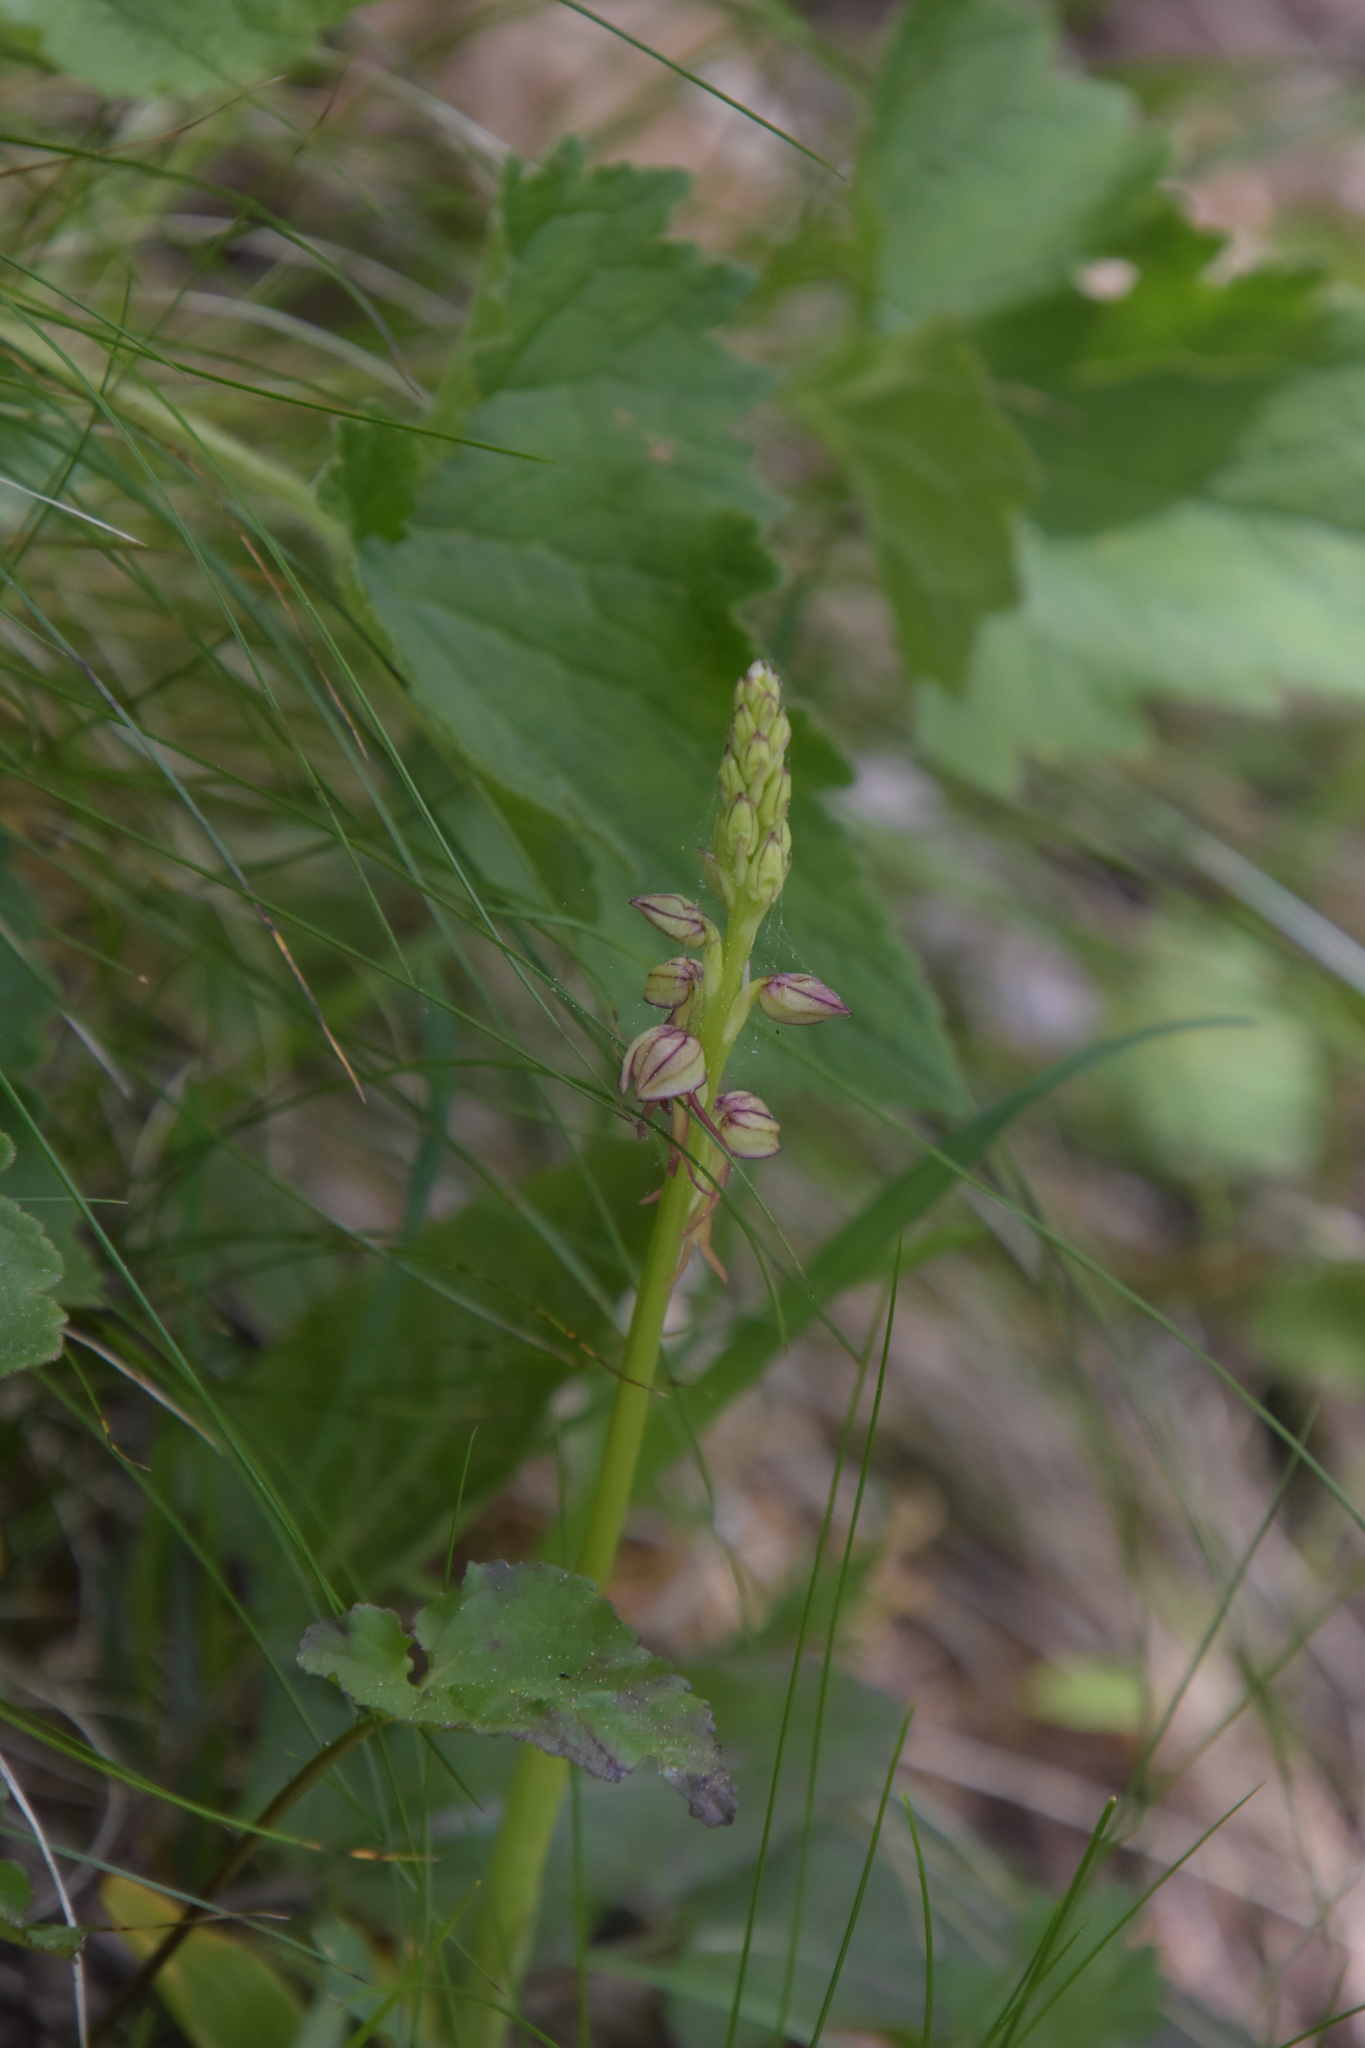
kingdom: Plantae
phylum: Tracheophyta
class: Liliopsida
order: Asparagales
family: Orchidaceae
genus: Orchis
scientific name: Orchis anthropophora
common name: Man orchid
